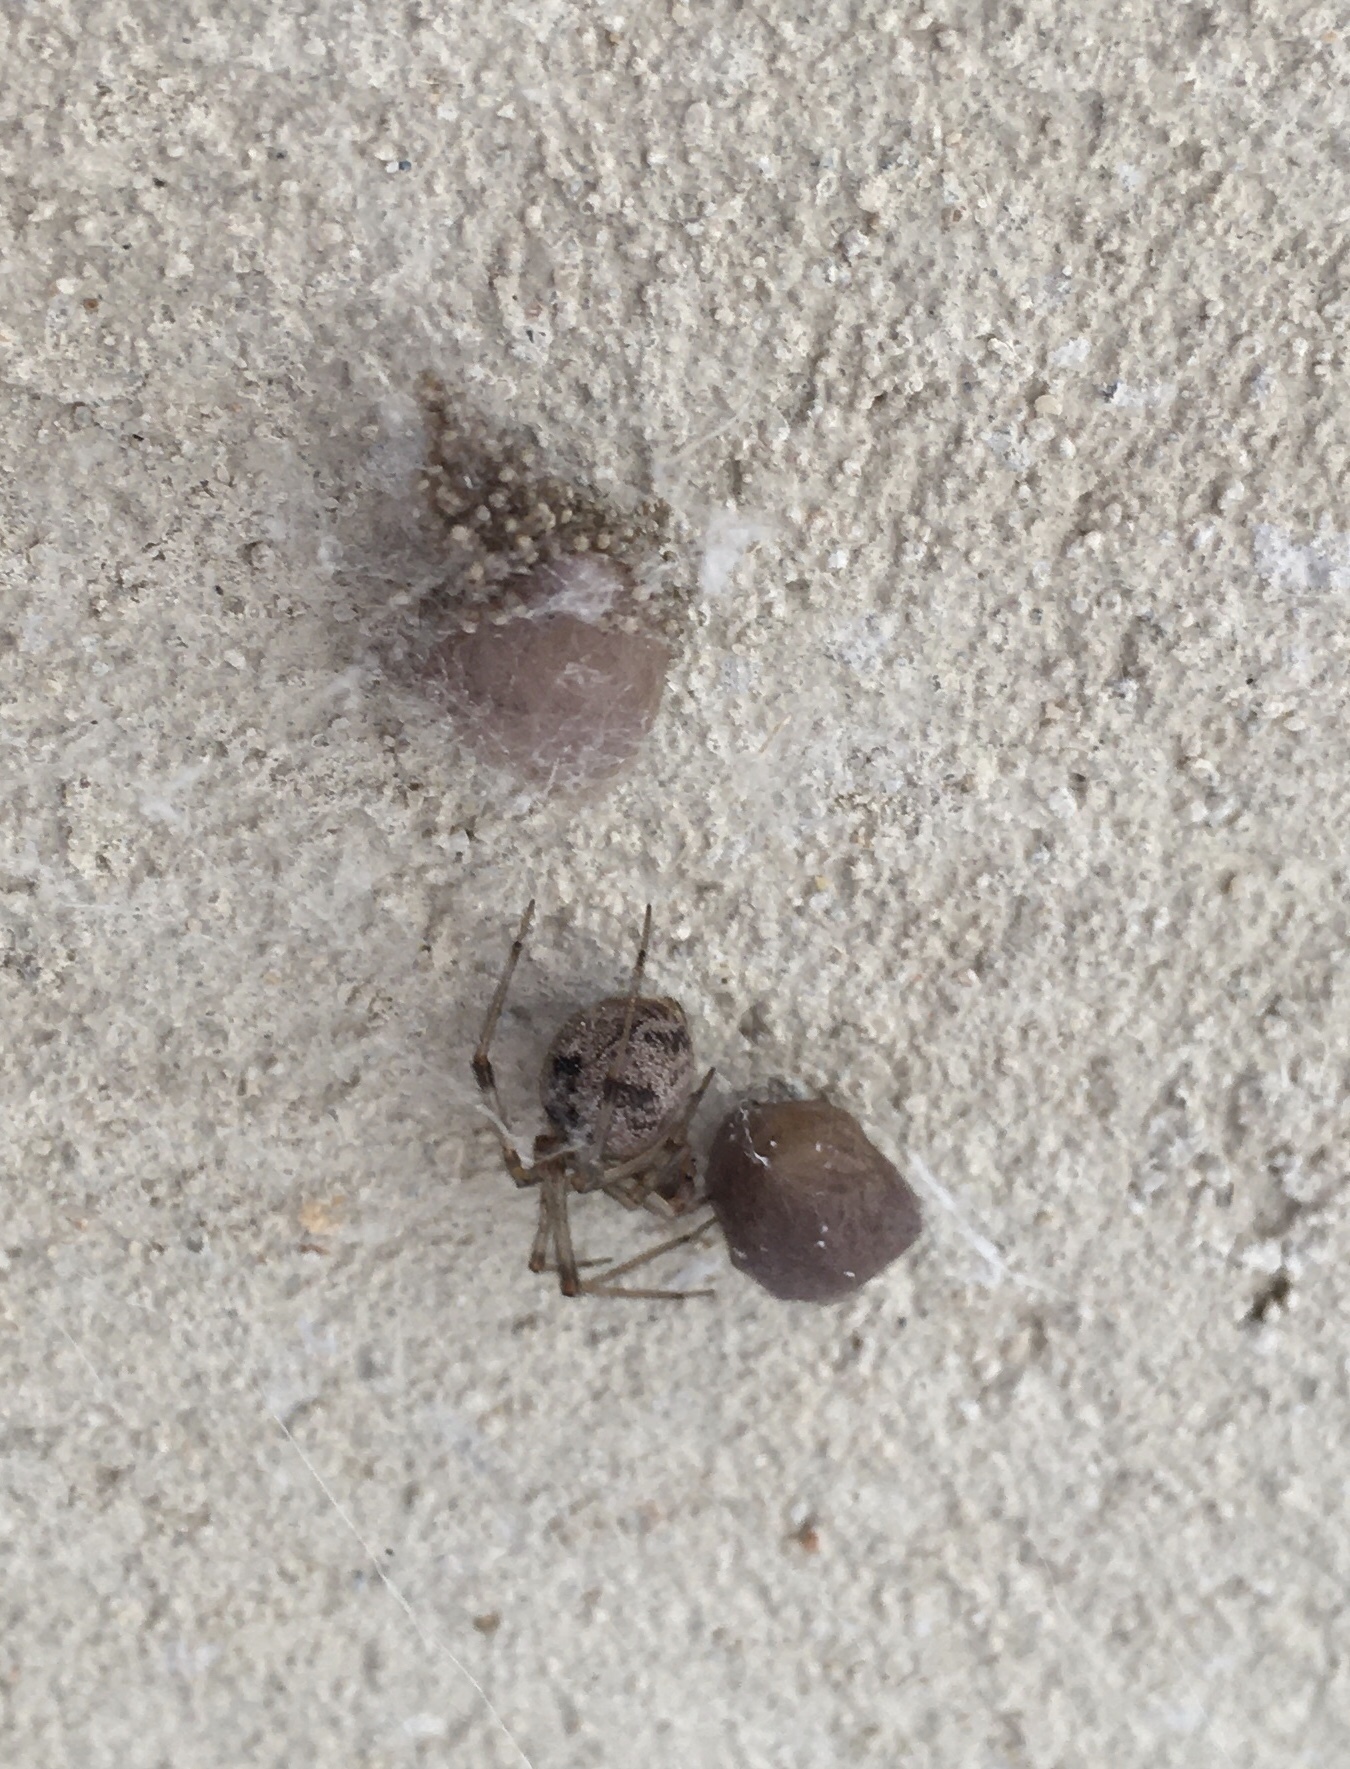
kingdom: Animalia
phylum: Arthropoda
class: Arachnida
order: Araneae
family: Theridiidae
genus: Parasteatoda
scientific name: Parasteatoda tepidariorum
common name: Common house spider
